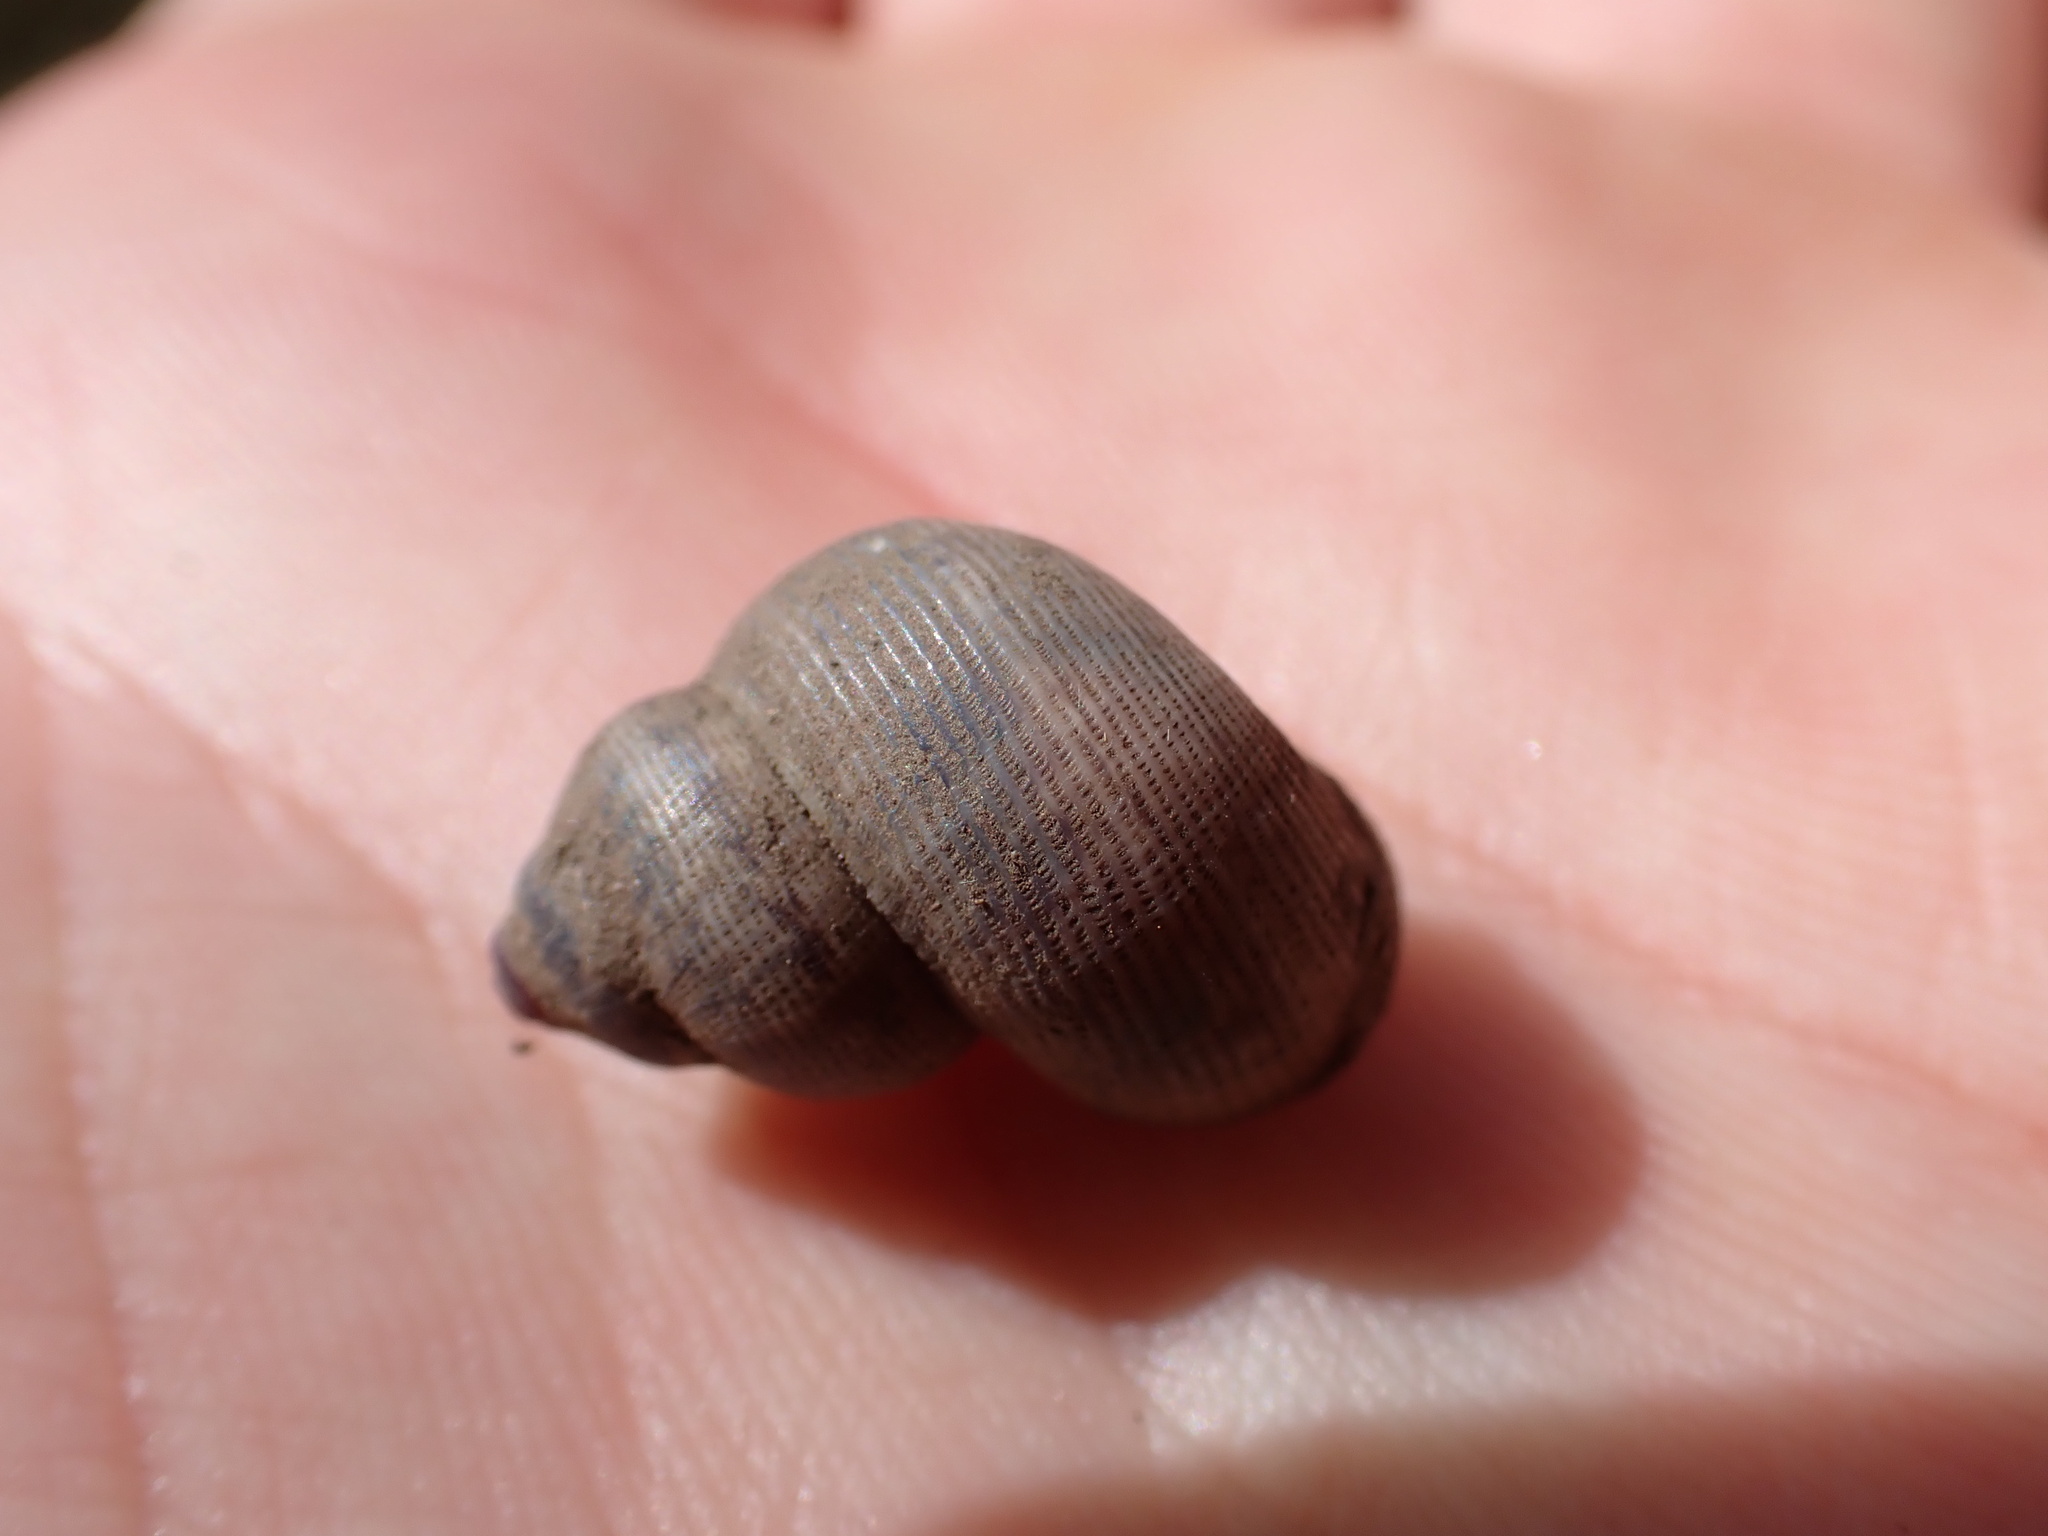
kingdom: Animalia
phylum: Mollusca
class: Gastropoda
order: Littorinimorpha
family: Pomatiidae
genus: Pomatias
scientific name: Pomatias elegans
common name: Red-mouthed snail
